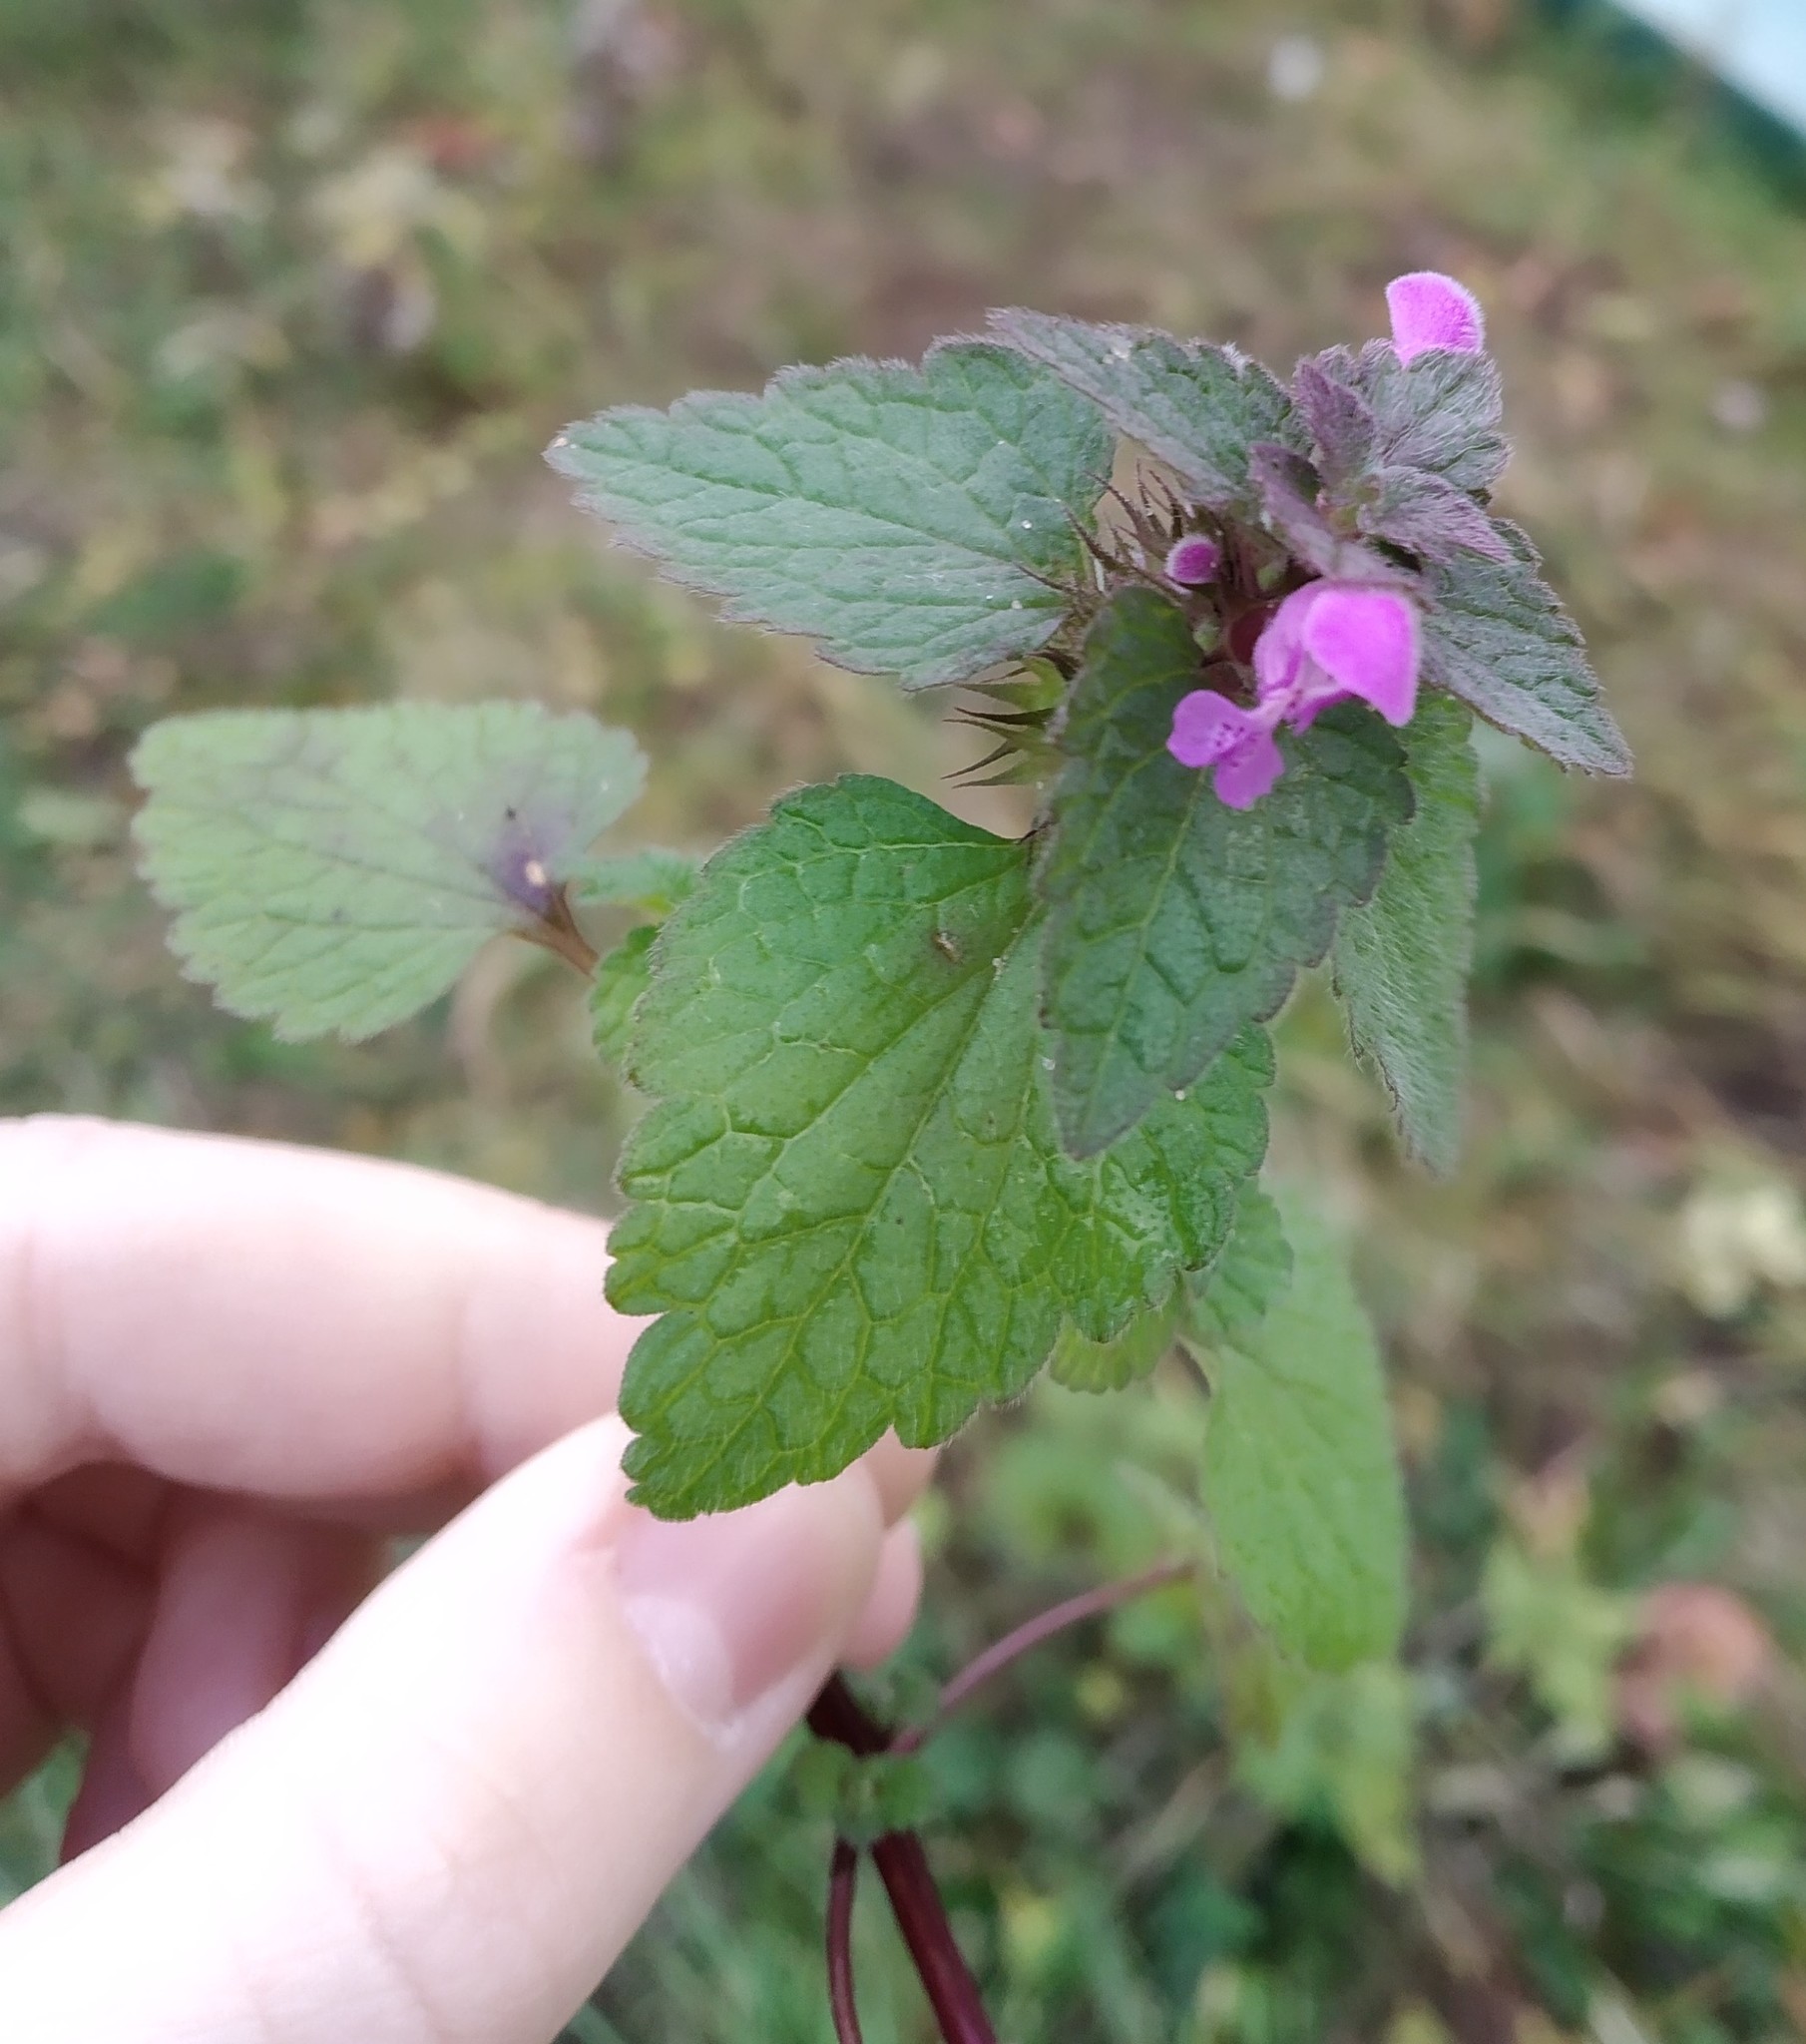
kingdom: Plantae
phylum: Tracheophyta
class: Magnoliopsida
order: Lamiales
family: Lamiaceae
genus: Lamium
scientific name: Lamium purpureum
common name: Red dead-nettle
